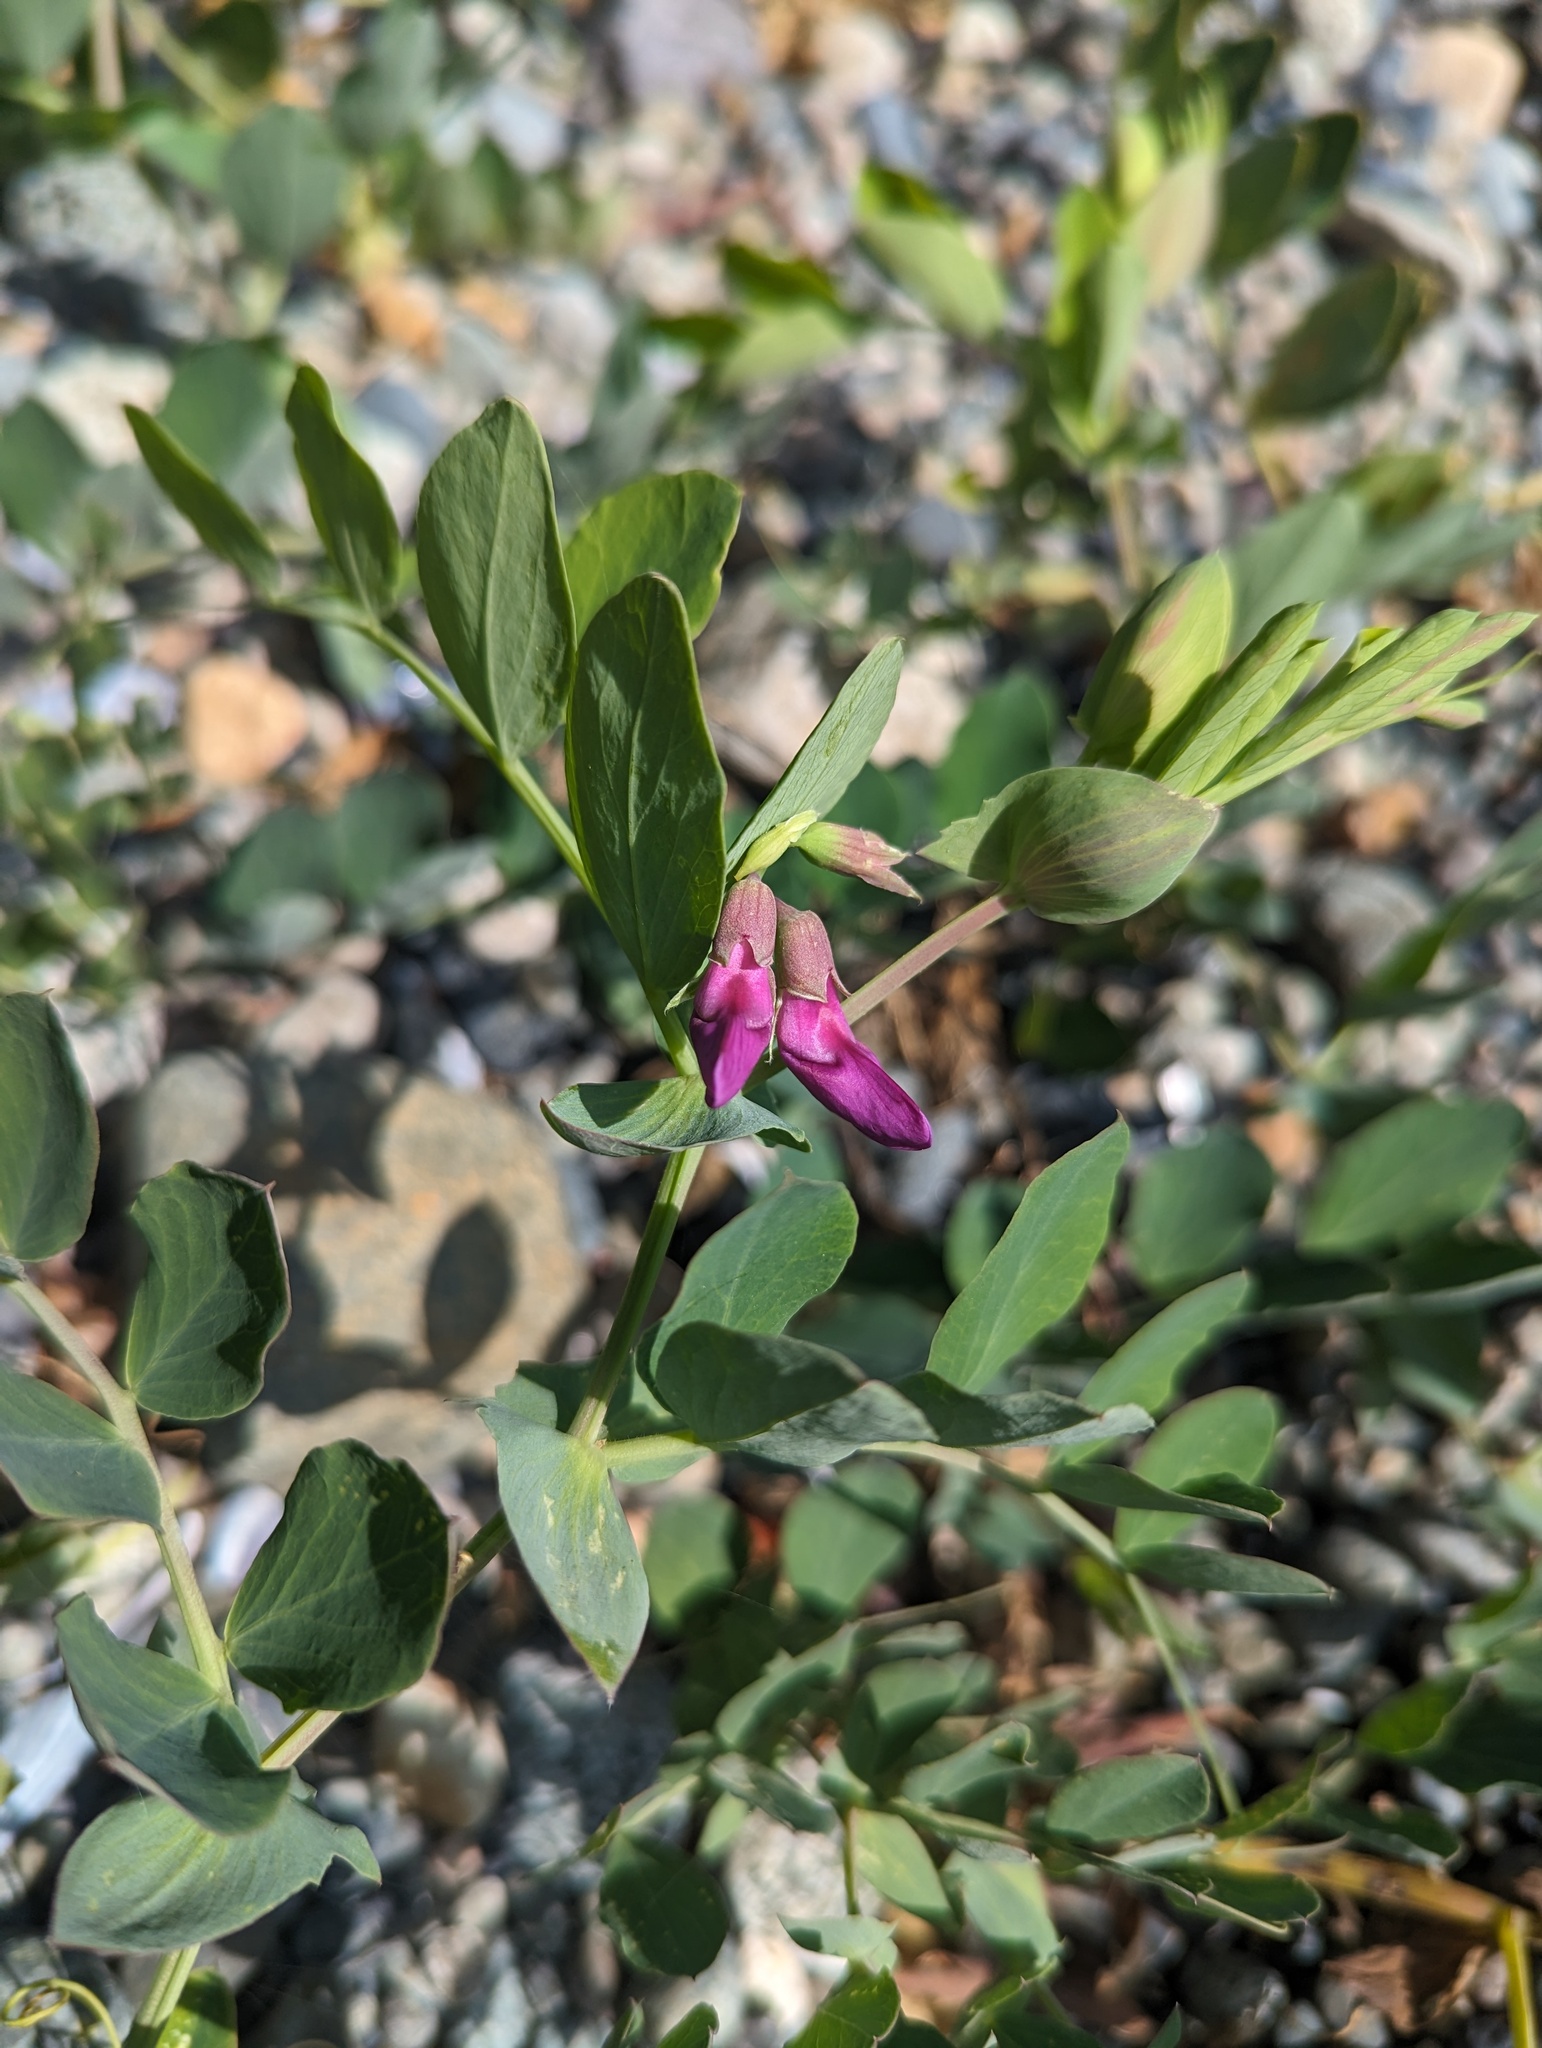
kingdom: Plantae
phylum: Tracheophyta
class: Magnoliopsida
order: Fabales
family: Fabaceae
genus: Lathyrus
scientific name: Lathyrus japonicus
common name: Sea pea
